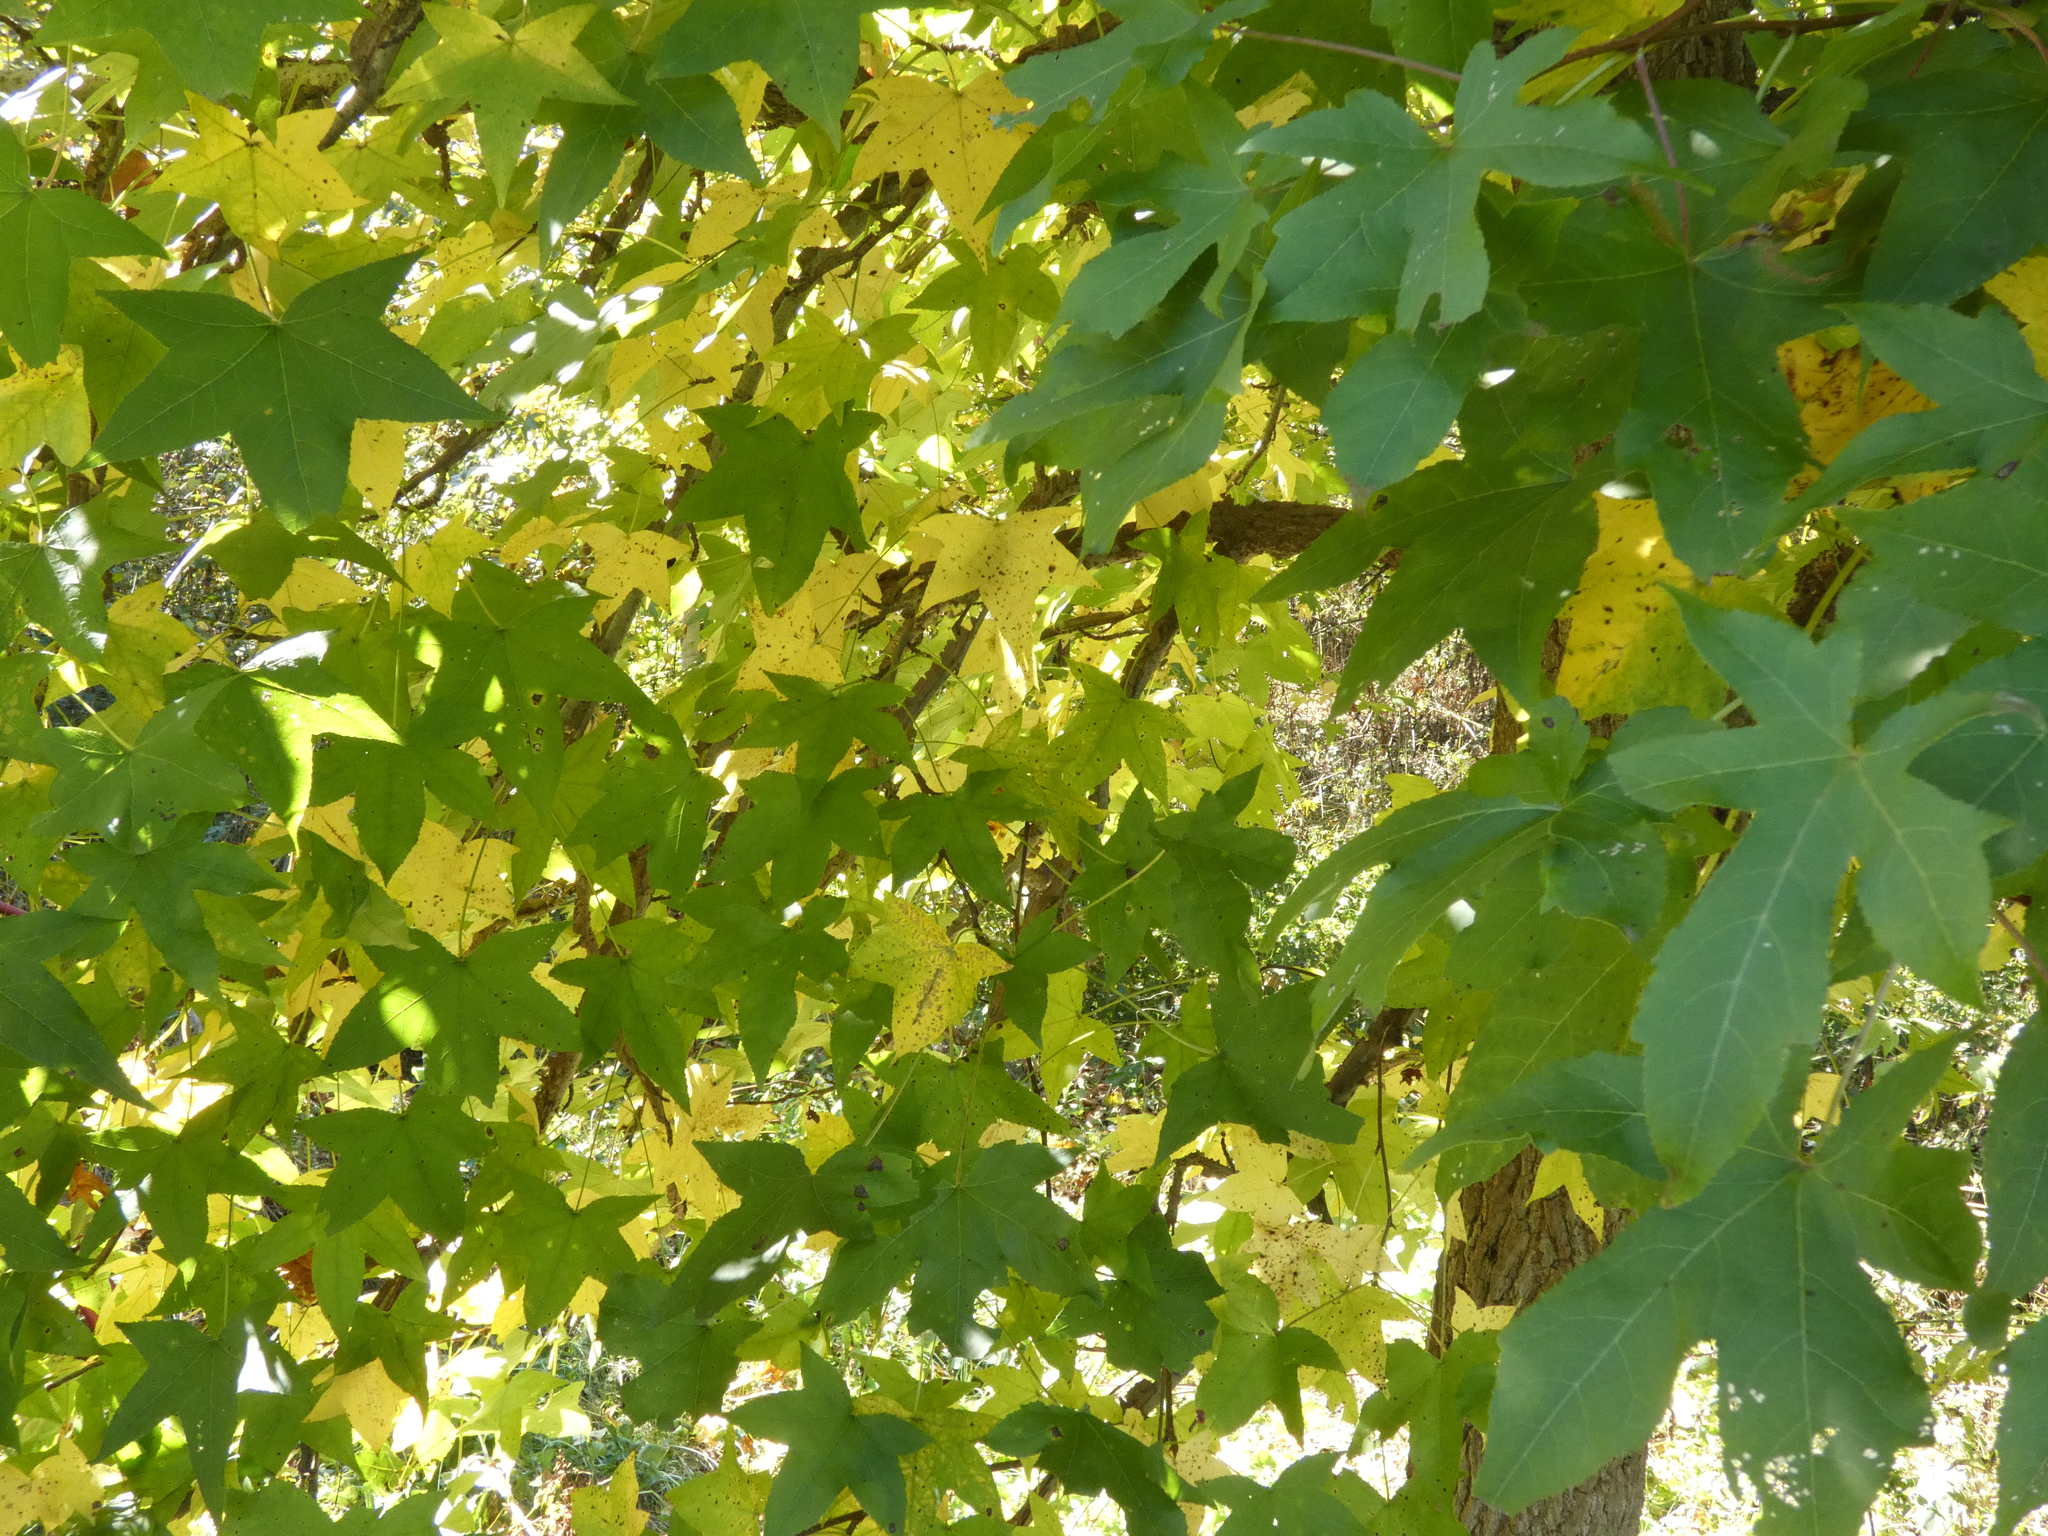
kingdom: Plantae
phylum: Tracheophyta
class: Magnoliopsida
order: Saxifragales
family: Altingiaceae
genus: Liquidambar
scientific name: Liquidambar styraciflua
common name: Sweet gum
